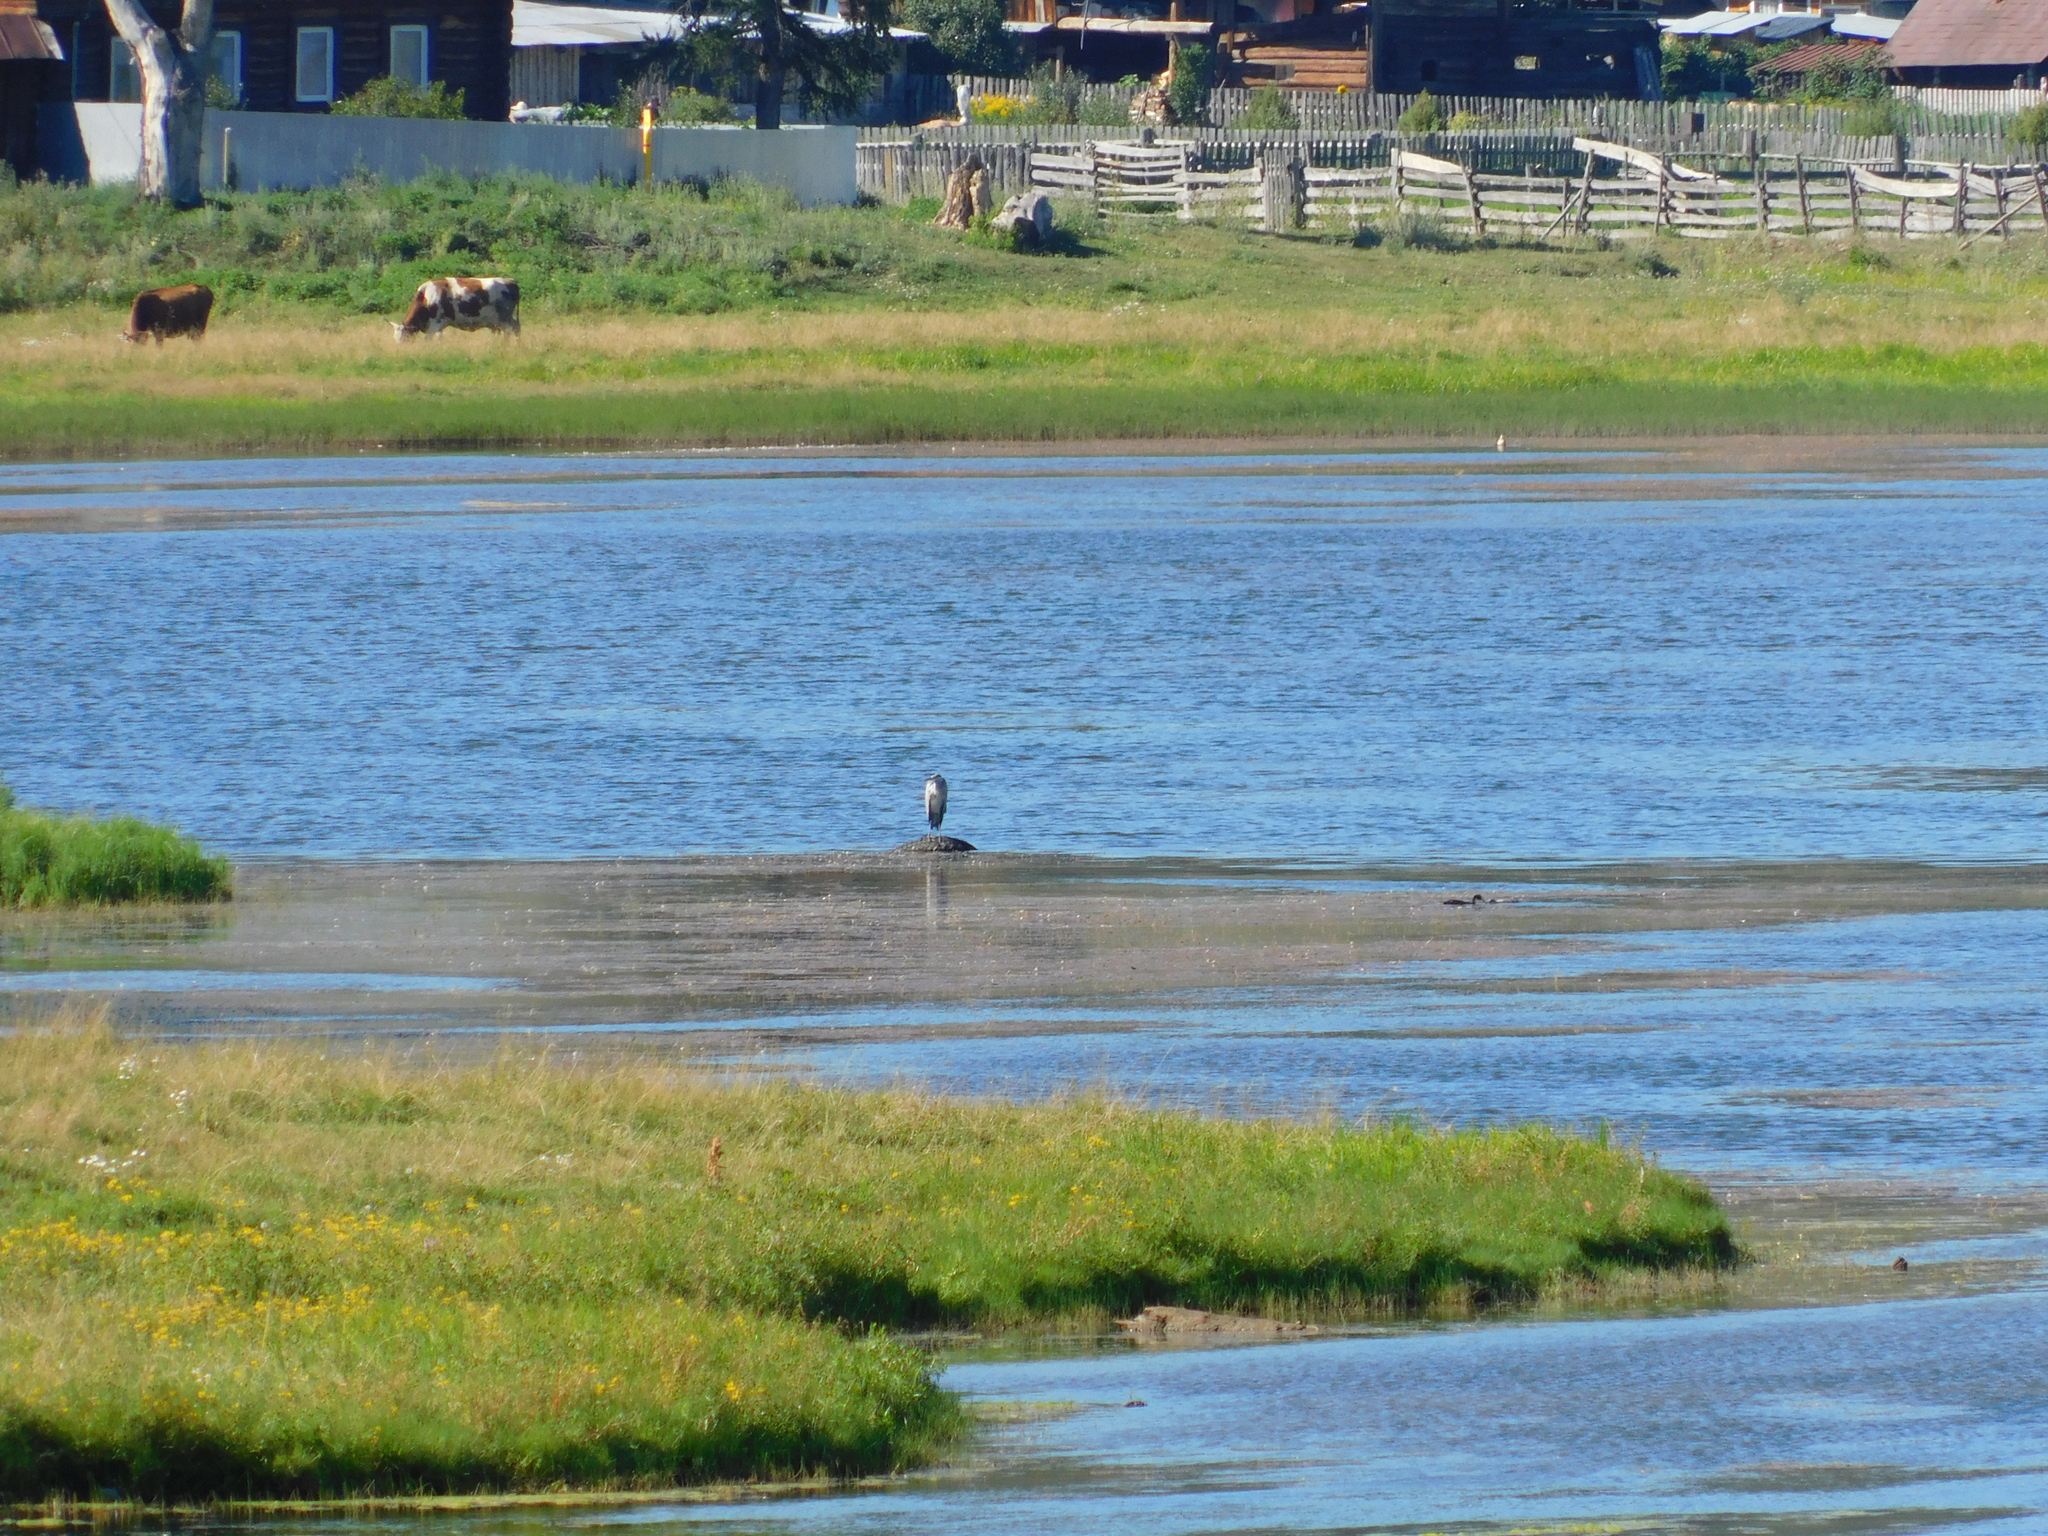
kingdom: Animalia
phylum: Chordata
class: Aves
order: Pelecaniformes
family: Ardeidae
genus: Ardea
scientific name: Ardea cinerea
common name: Grey heron
